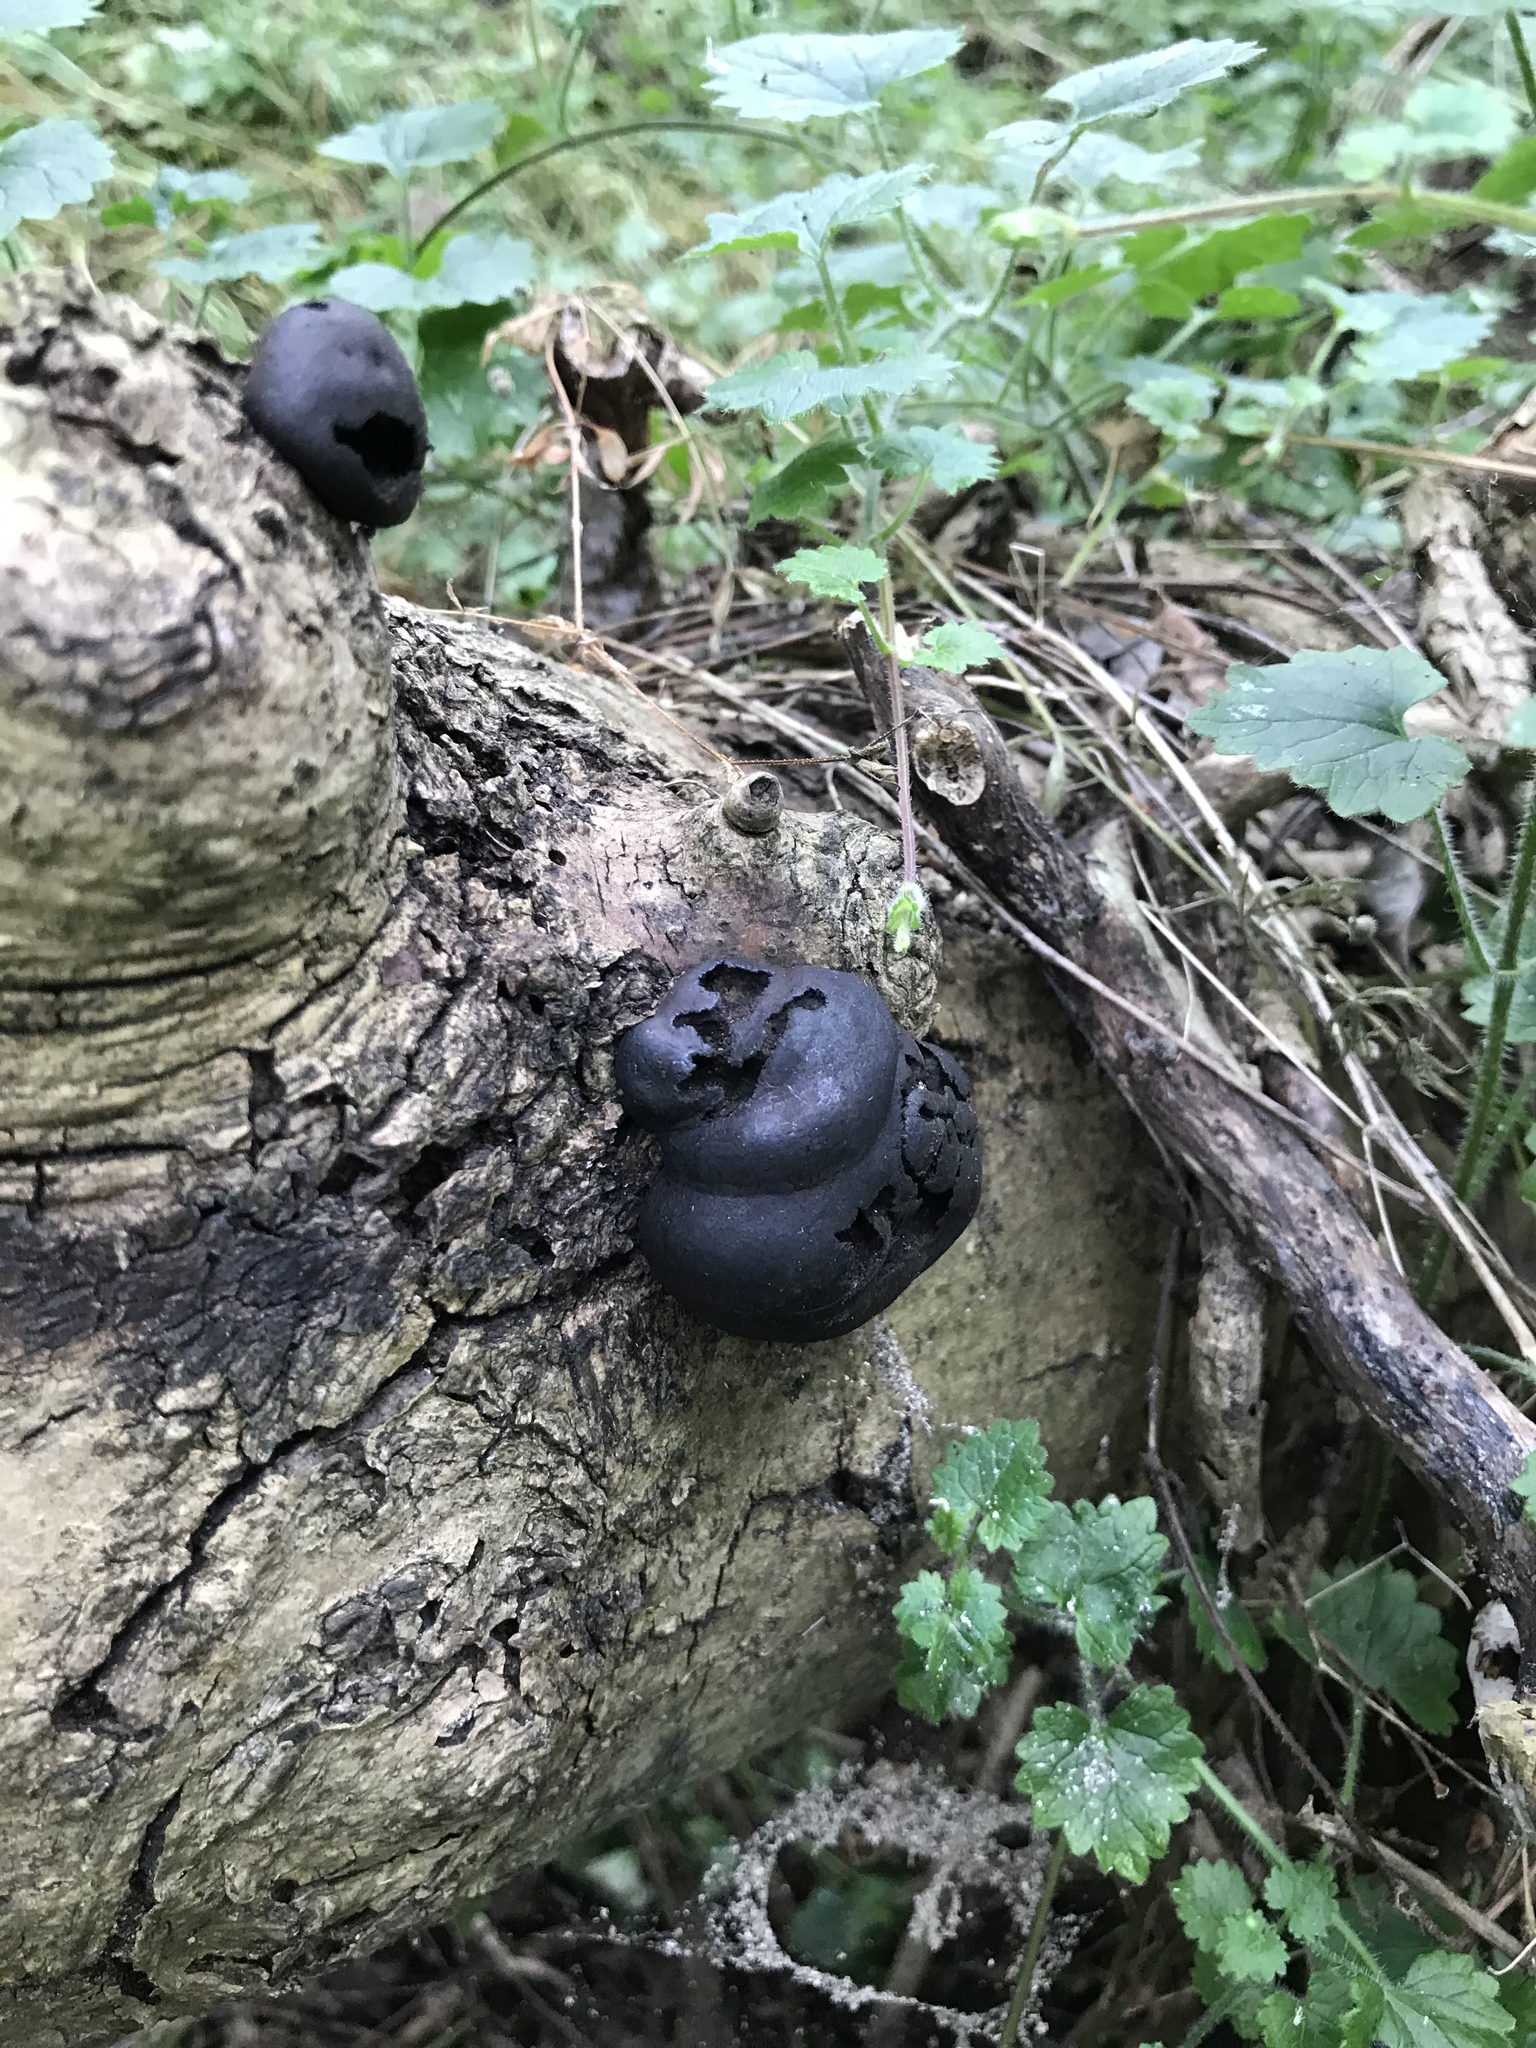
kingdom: Fungi
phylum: Ascomycota
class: Sordariomycetes
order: Xylariales
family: Hypoxylaceae
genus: Daldinia
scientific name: Daldinia concentrica
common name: Cramp balls
